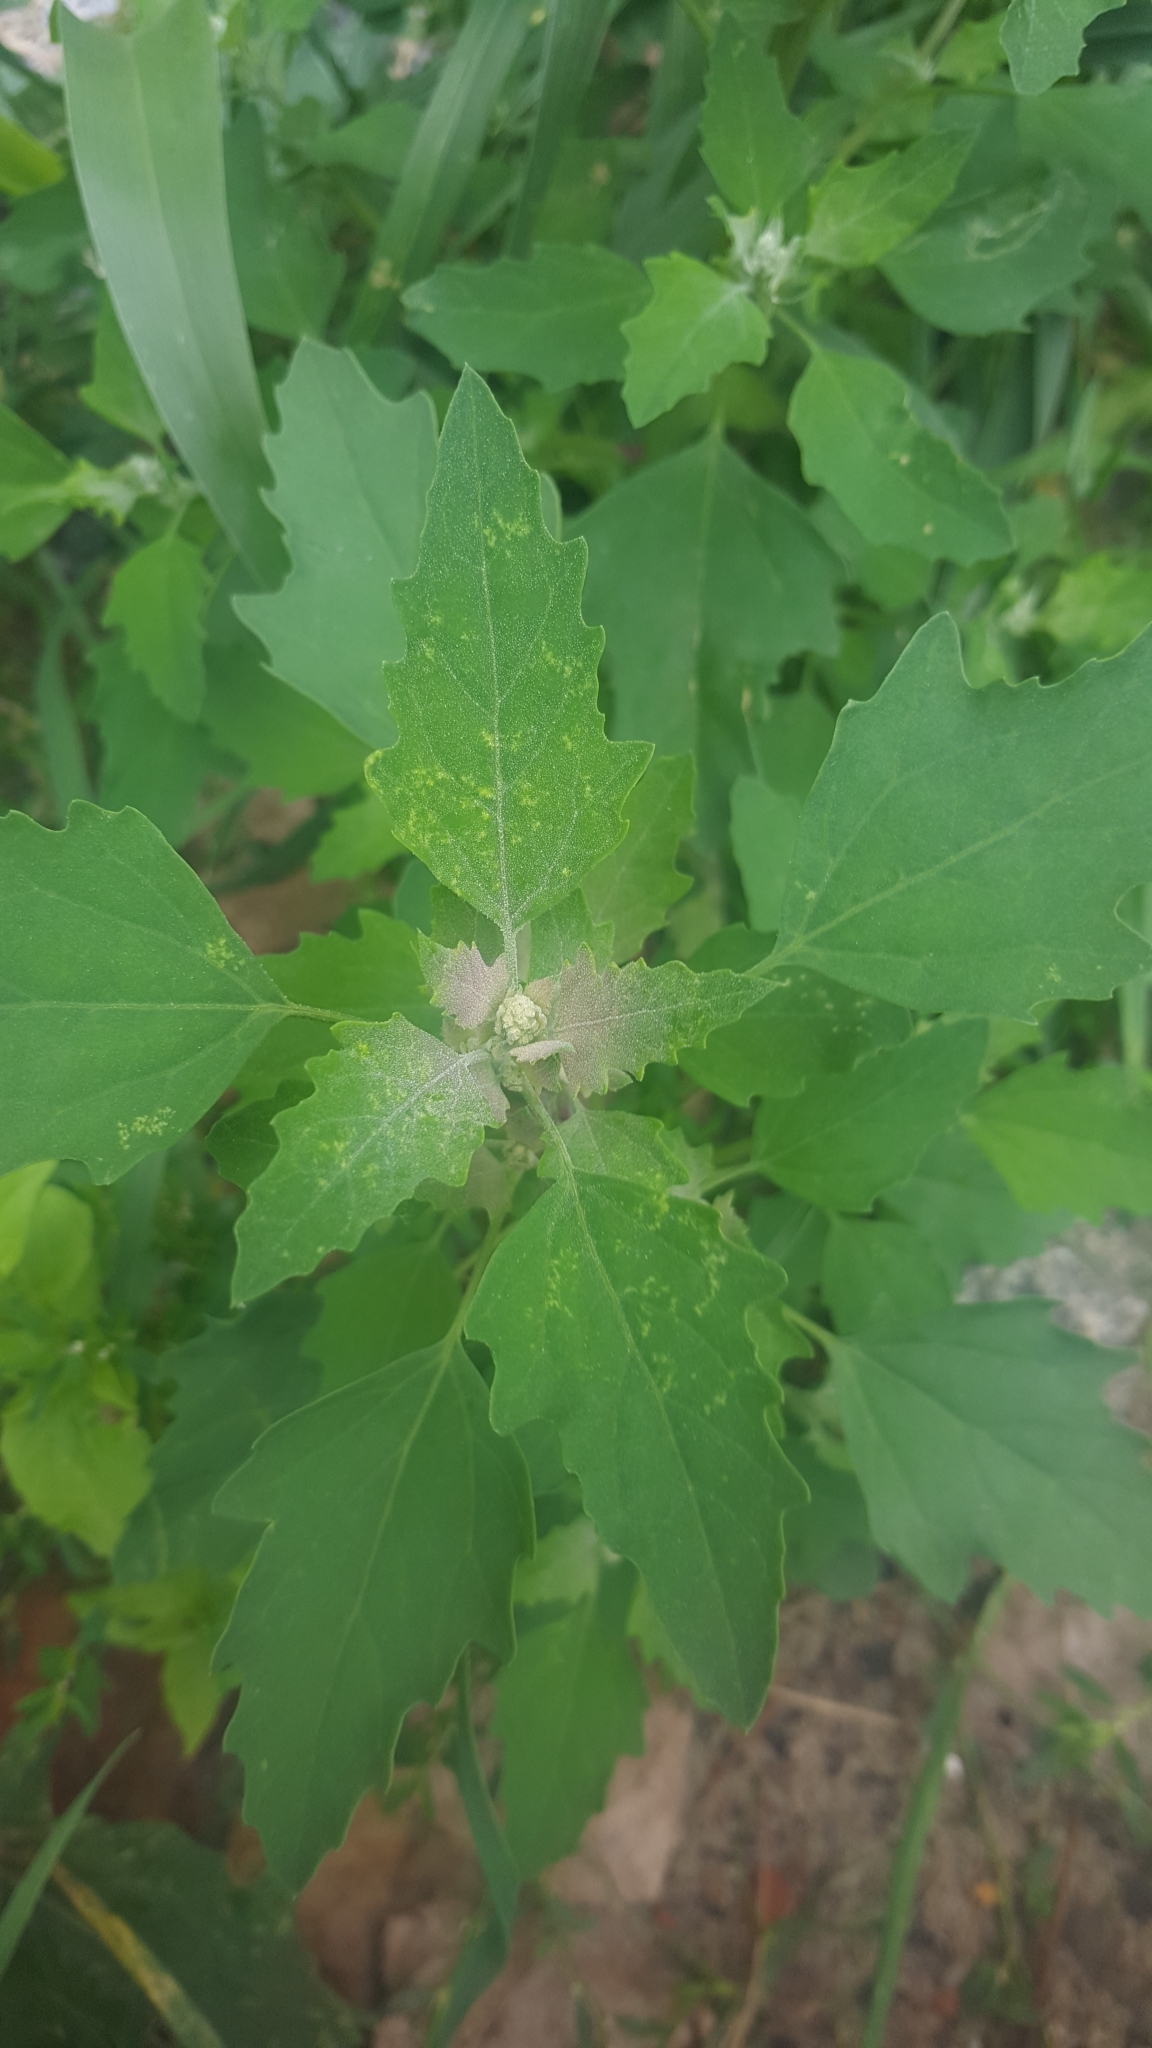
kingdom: Plantae
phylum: Tracheophyta
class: Magnoliopsida
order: Caryophyllales
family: Amaranthaceae
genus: Chenopodium
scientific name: Chenopodium album
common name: Fat-hen
